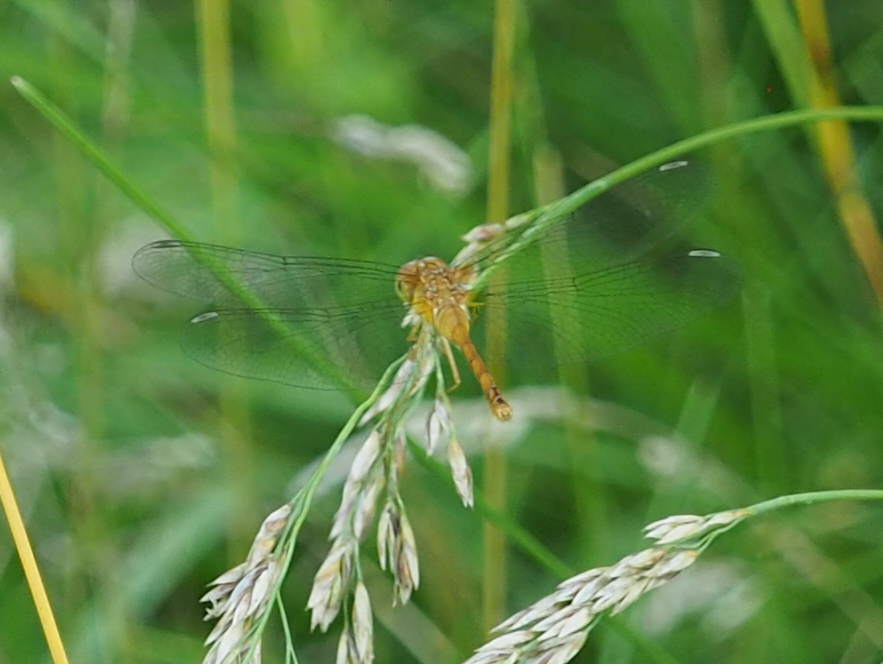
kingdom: Animalia
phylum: Arthropoda
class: Insecta
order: Odonata
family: Libellulidae
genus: Sympetrum
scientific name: Sympetrum vicinum
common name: Autumn meadowhawk
